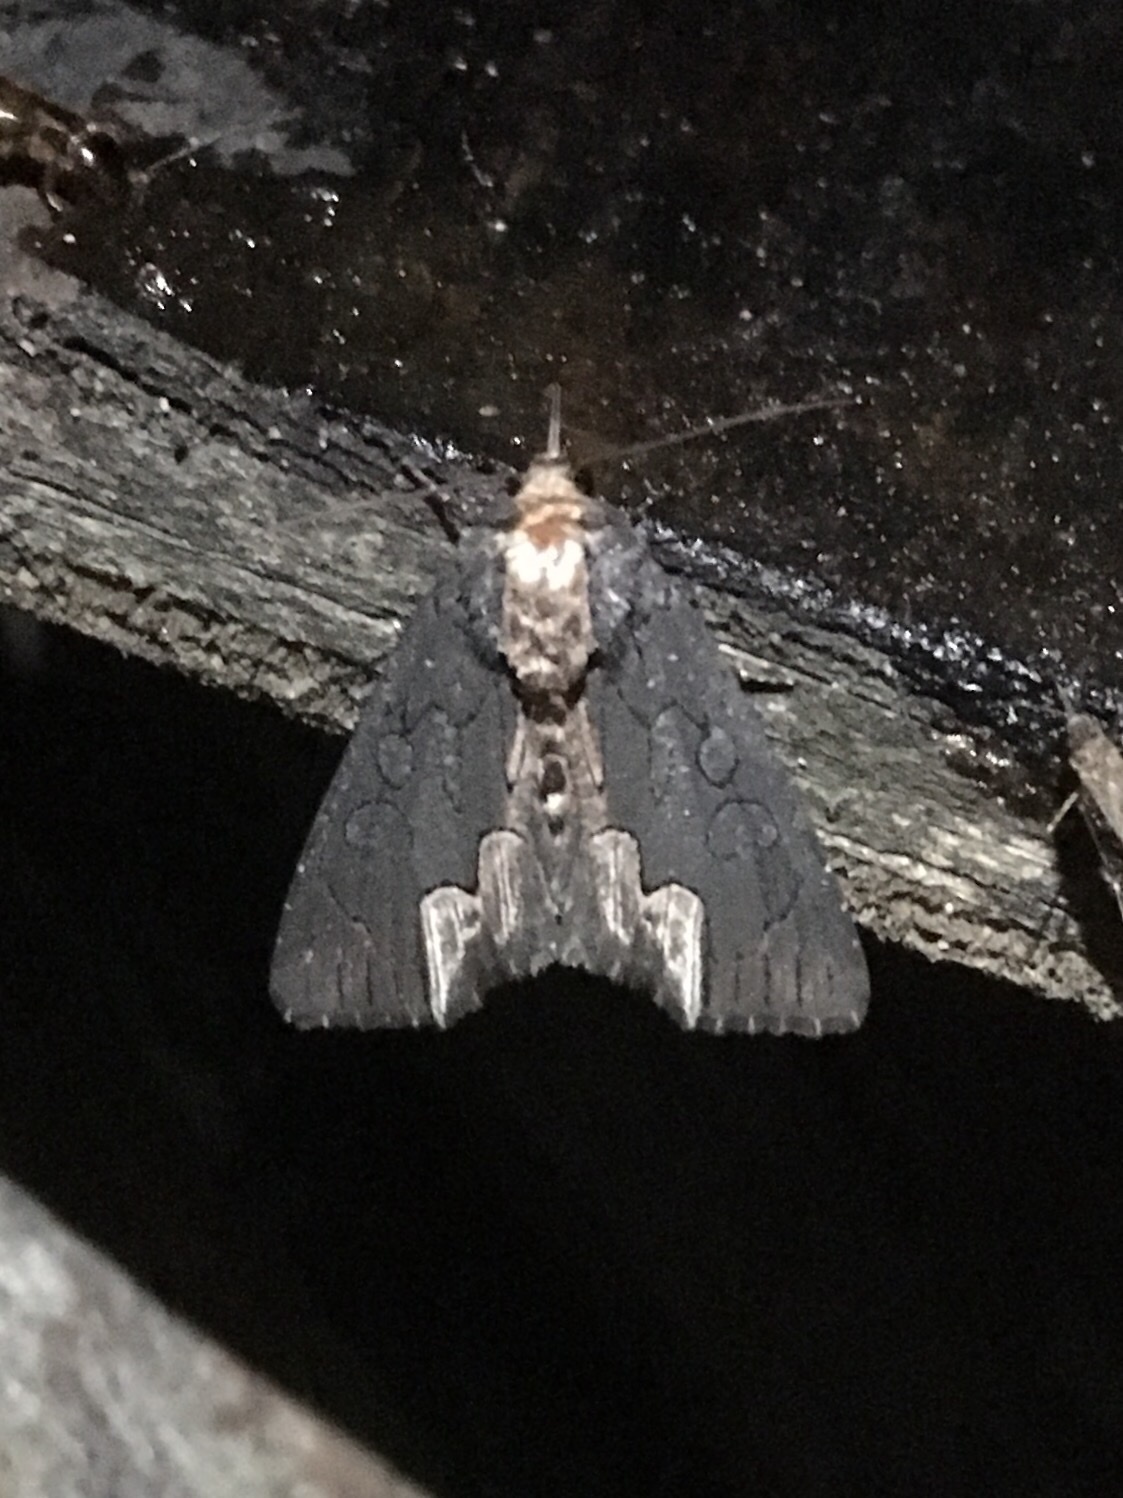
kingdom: Animalia
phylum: Arthropoda
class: Insecta
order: Lepidoptera
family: Noctuidae
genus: Dypterygia
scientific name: Dypterygia rozmani
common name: American bird's-wing
